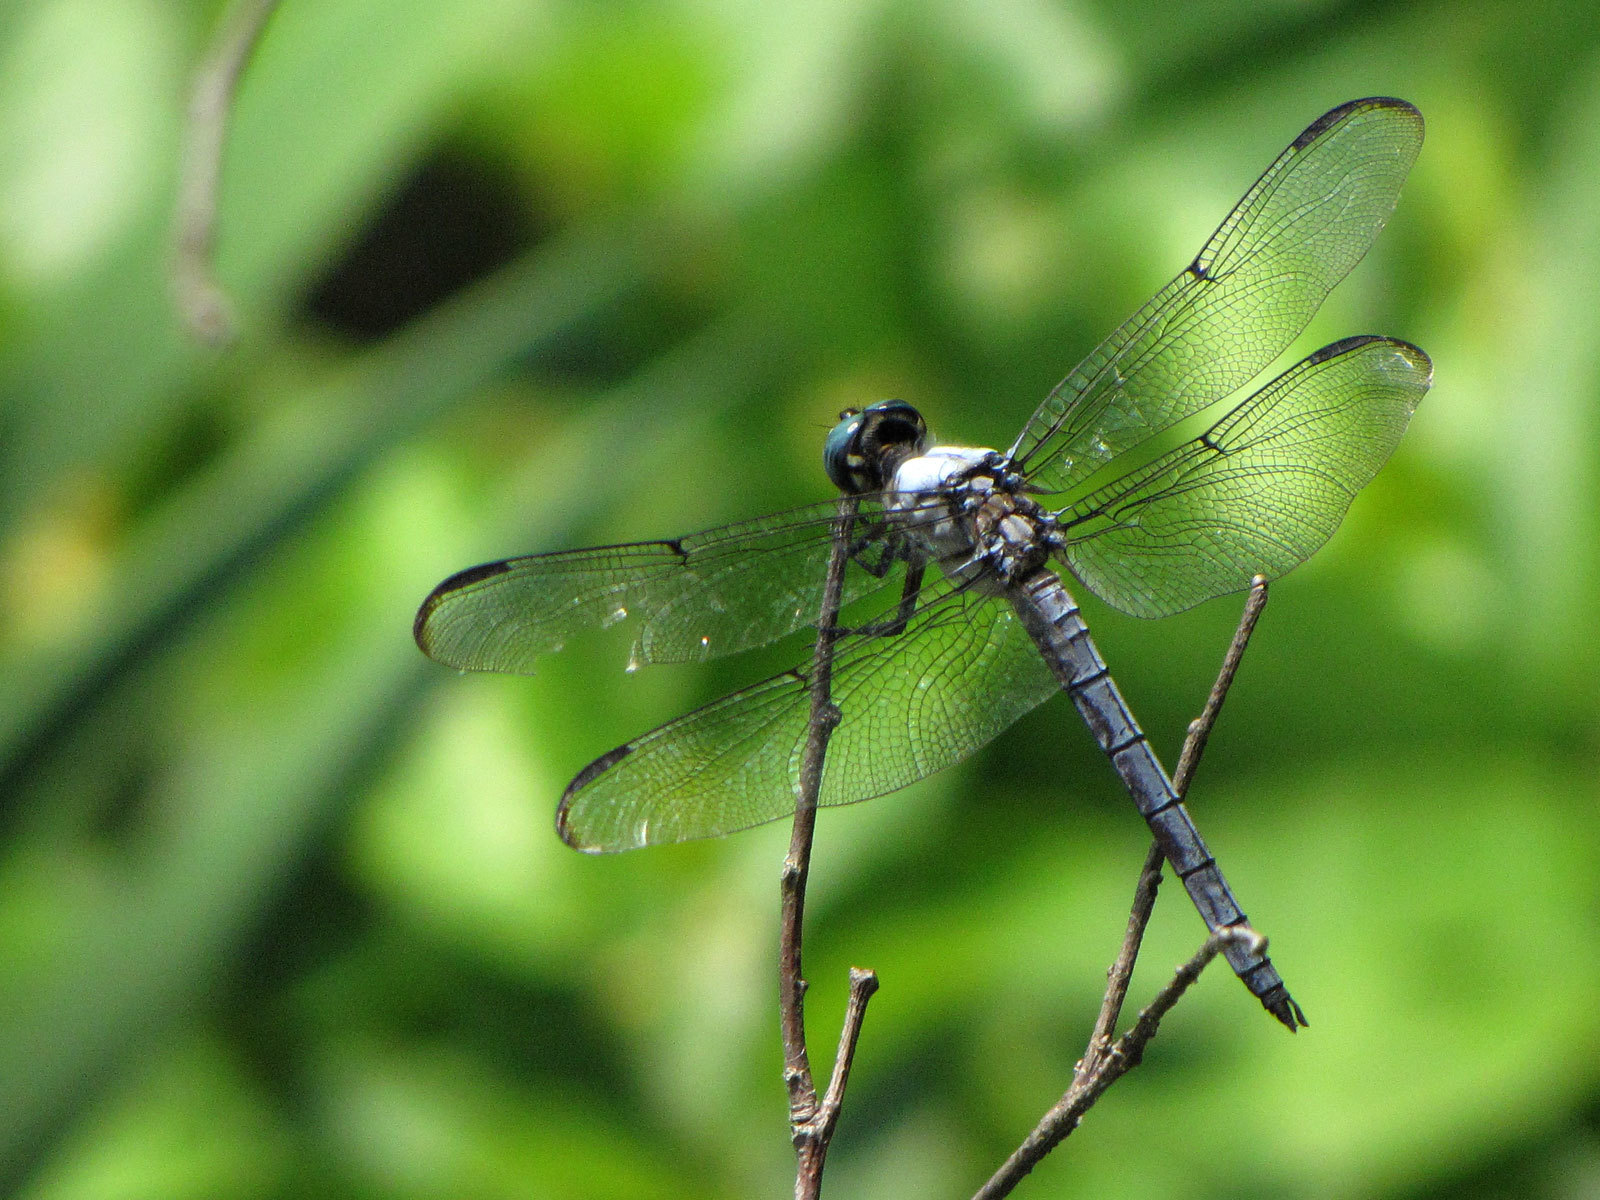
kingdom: Animalia
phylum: Arthropoda
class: Insecta
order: Odonata
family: Libellulidae
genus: Libellula
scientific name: Libellula vibrans
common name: Great blue skimmer
